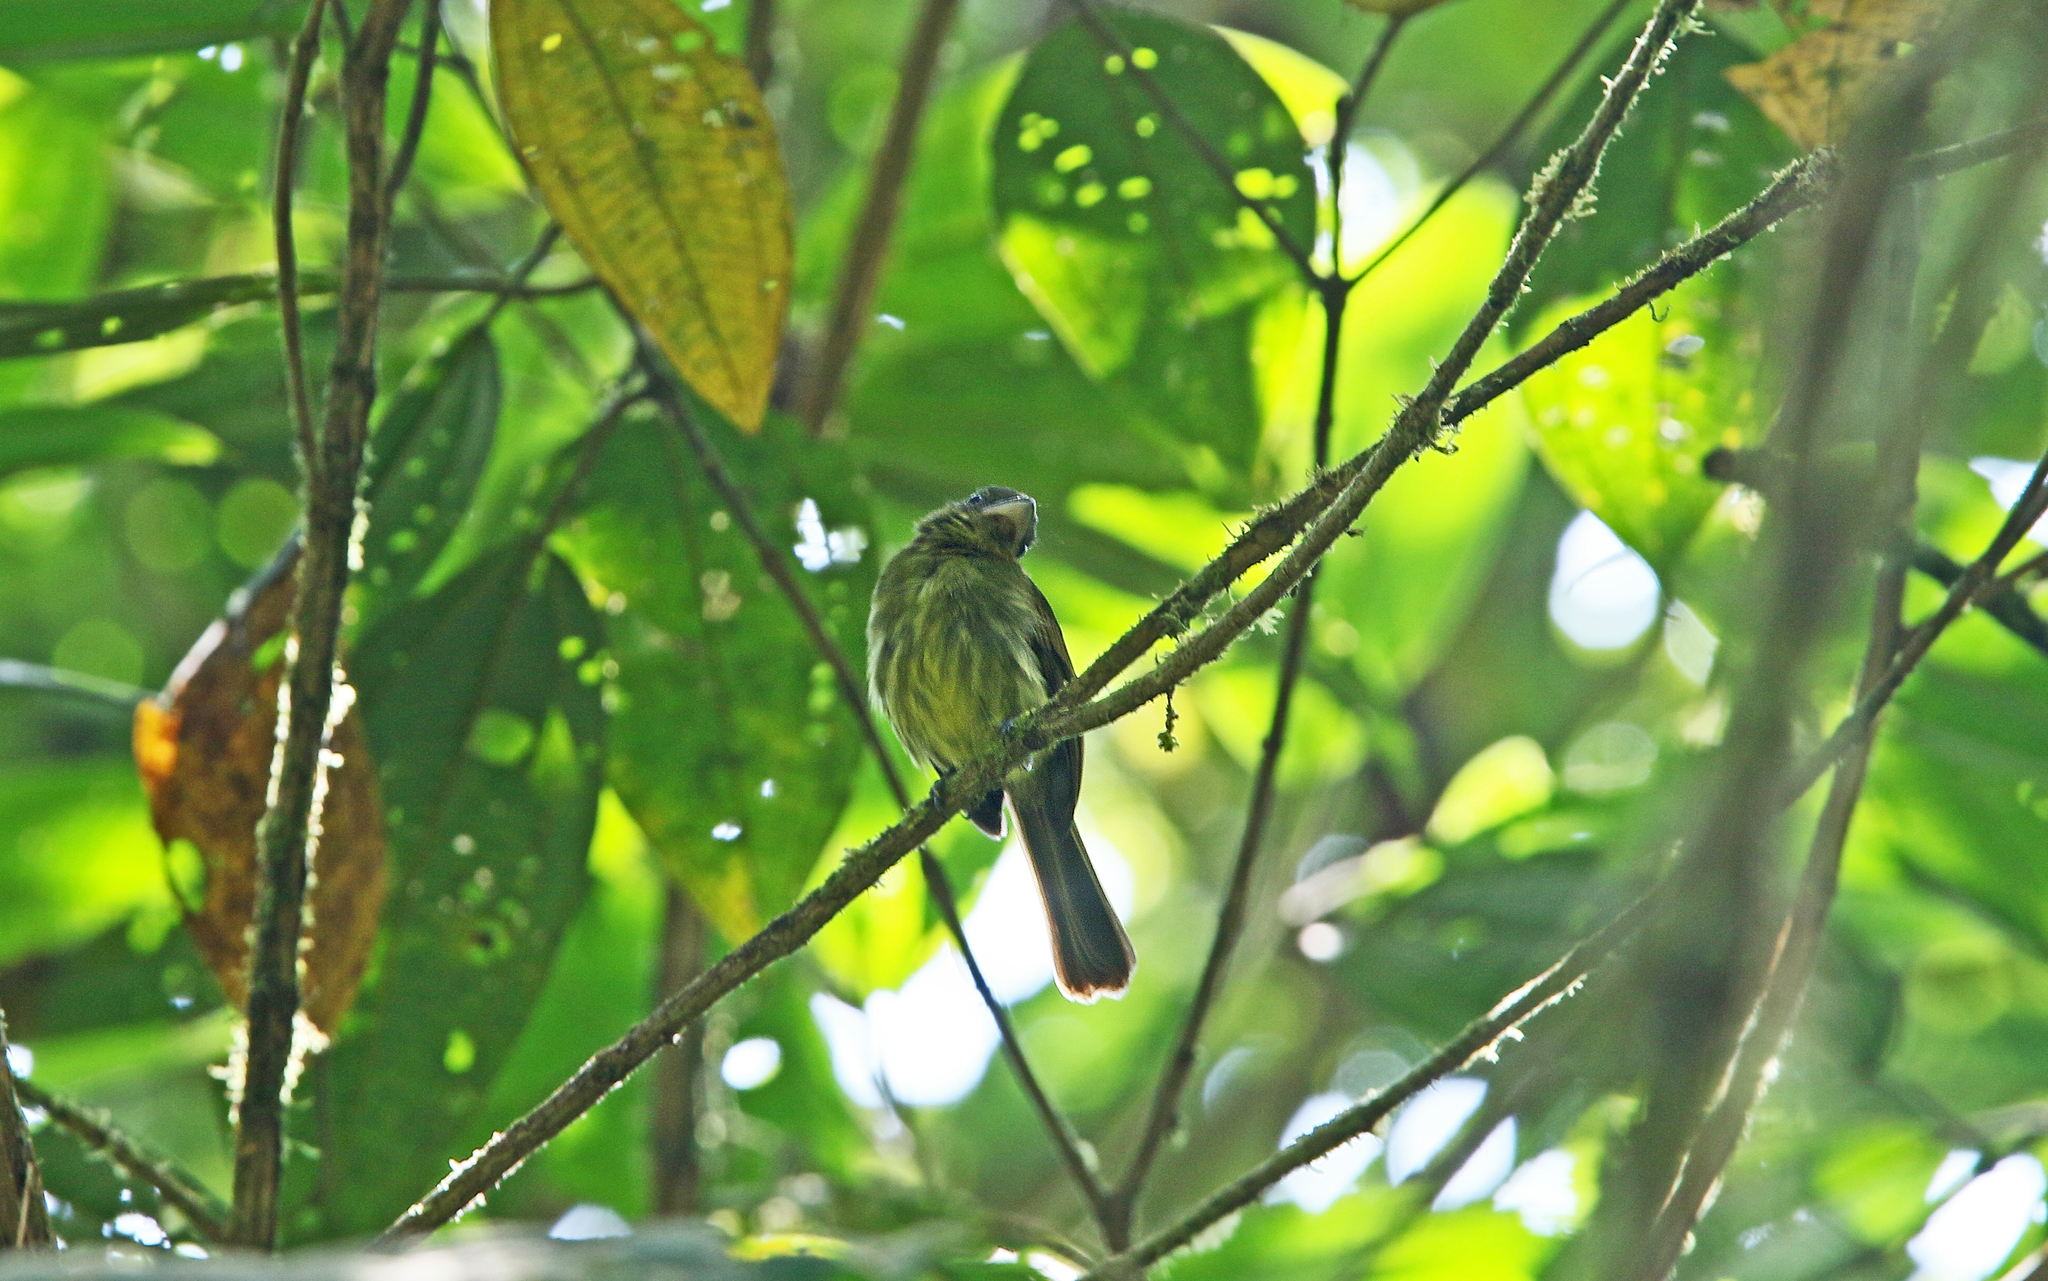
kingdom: Animalia
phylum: Chordata
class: Aves
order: Passeriformes
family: Tyrannidae
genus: Rhynchocyclus
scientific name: Rhynchocyclus pacificus
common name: Pacific flatbill
